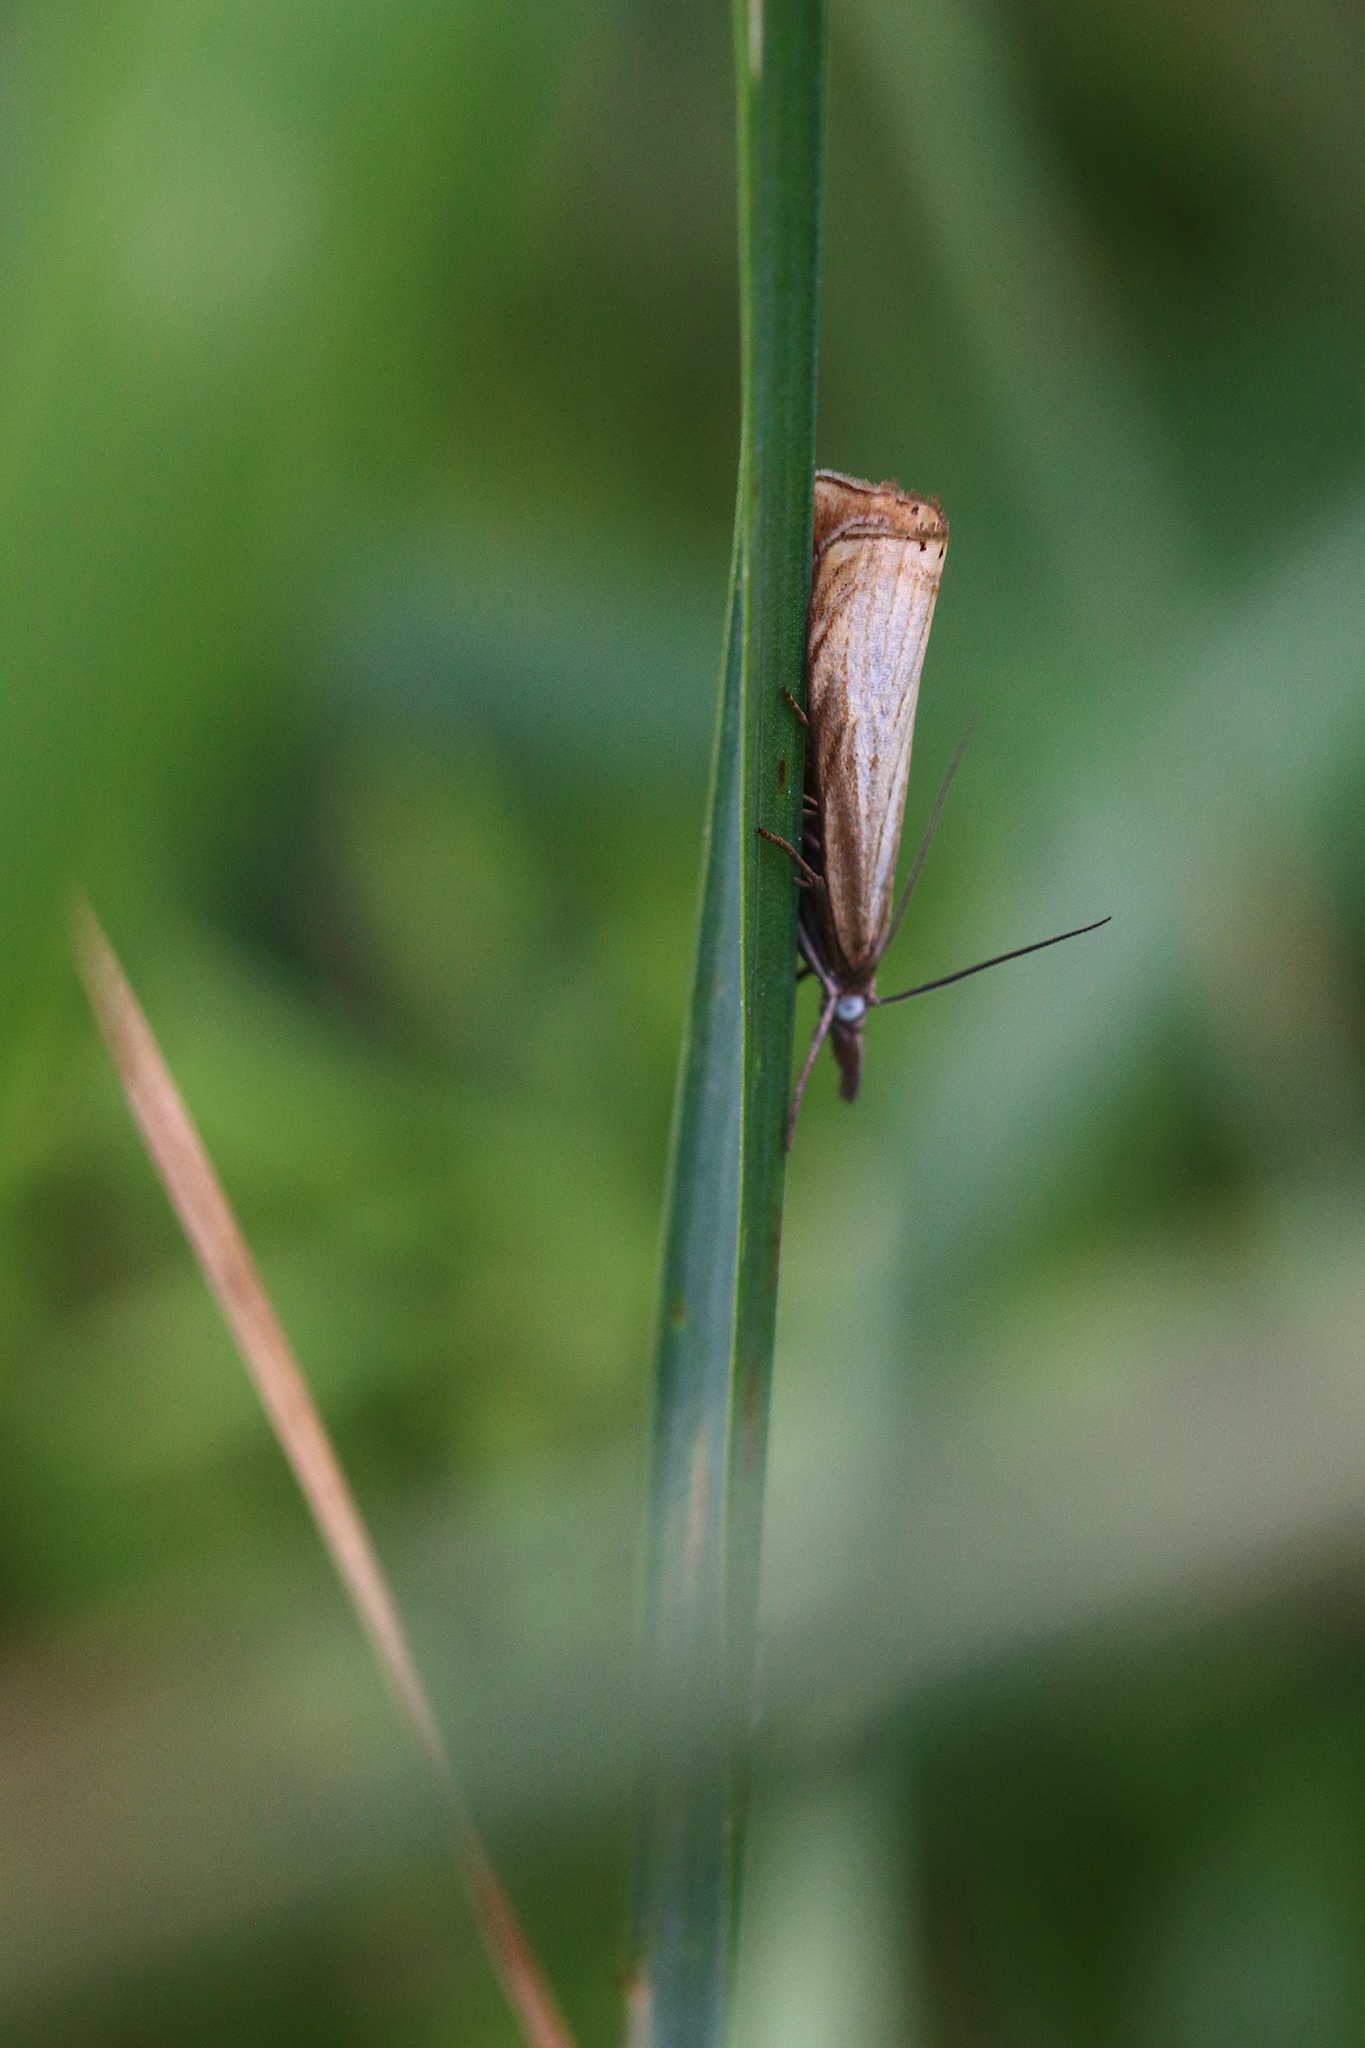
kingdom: Animalia
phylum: Arthropoda
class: Insecta
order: Lepidoptera
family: Crambidae
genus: Chrysoteuchia
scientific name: Chrysoteuchia culmella
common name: Garden grass-veneer
